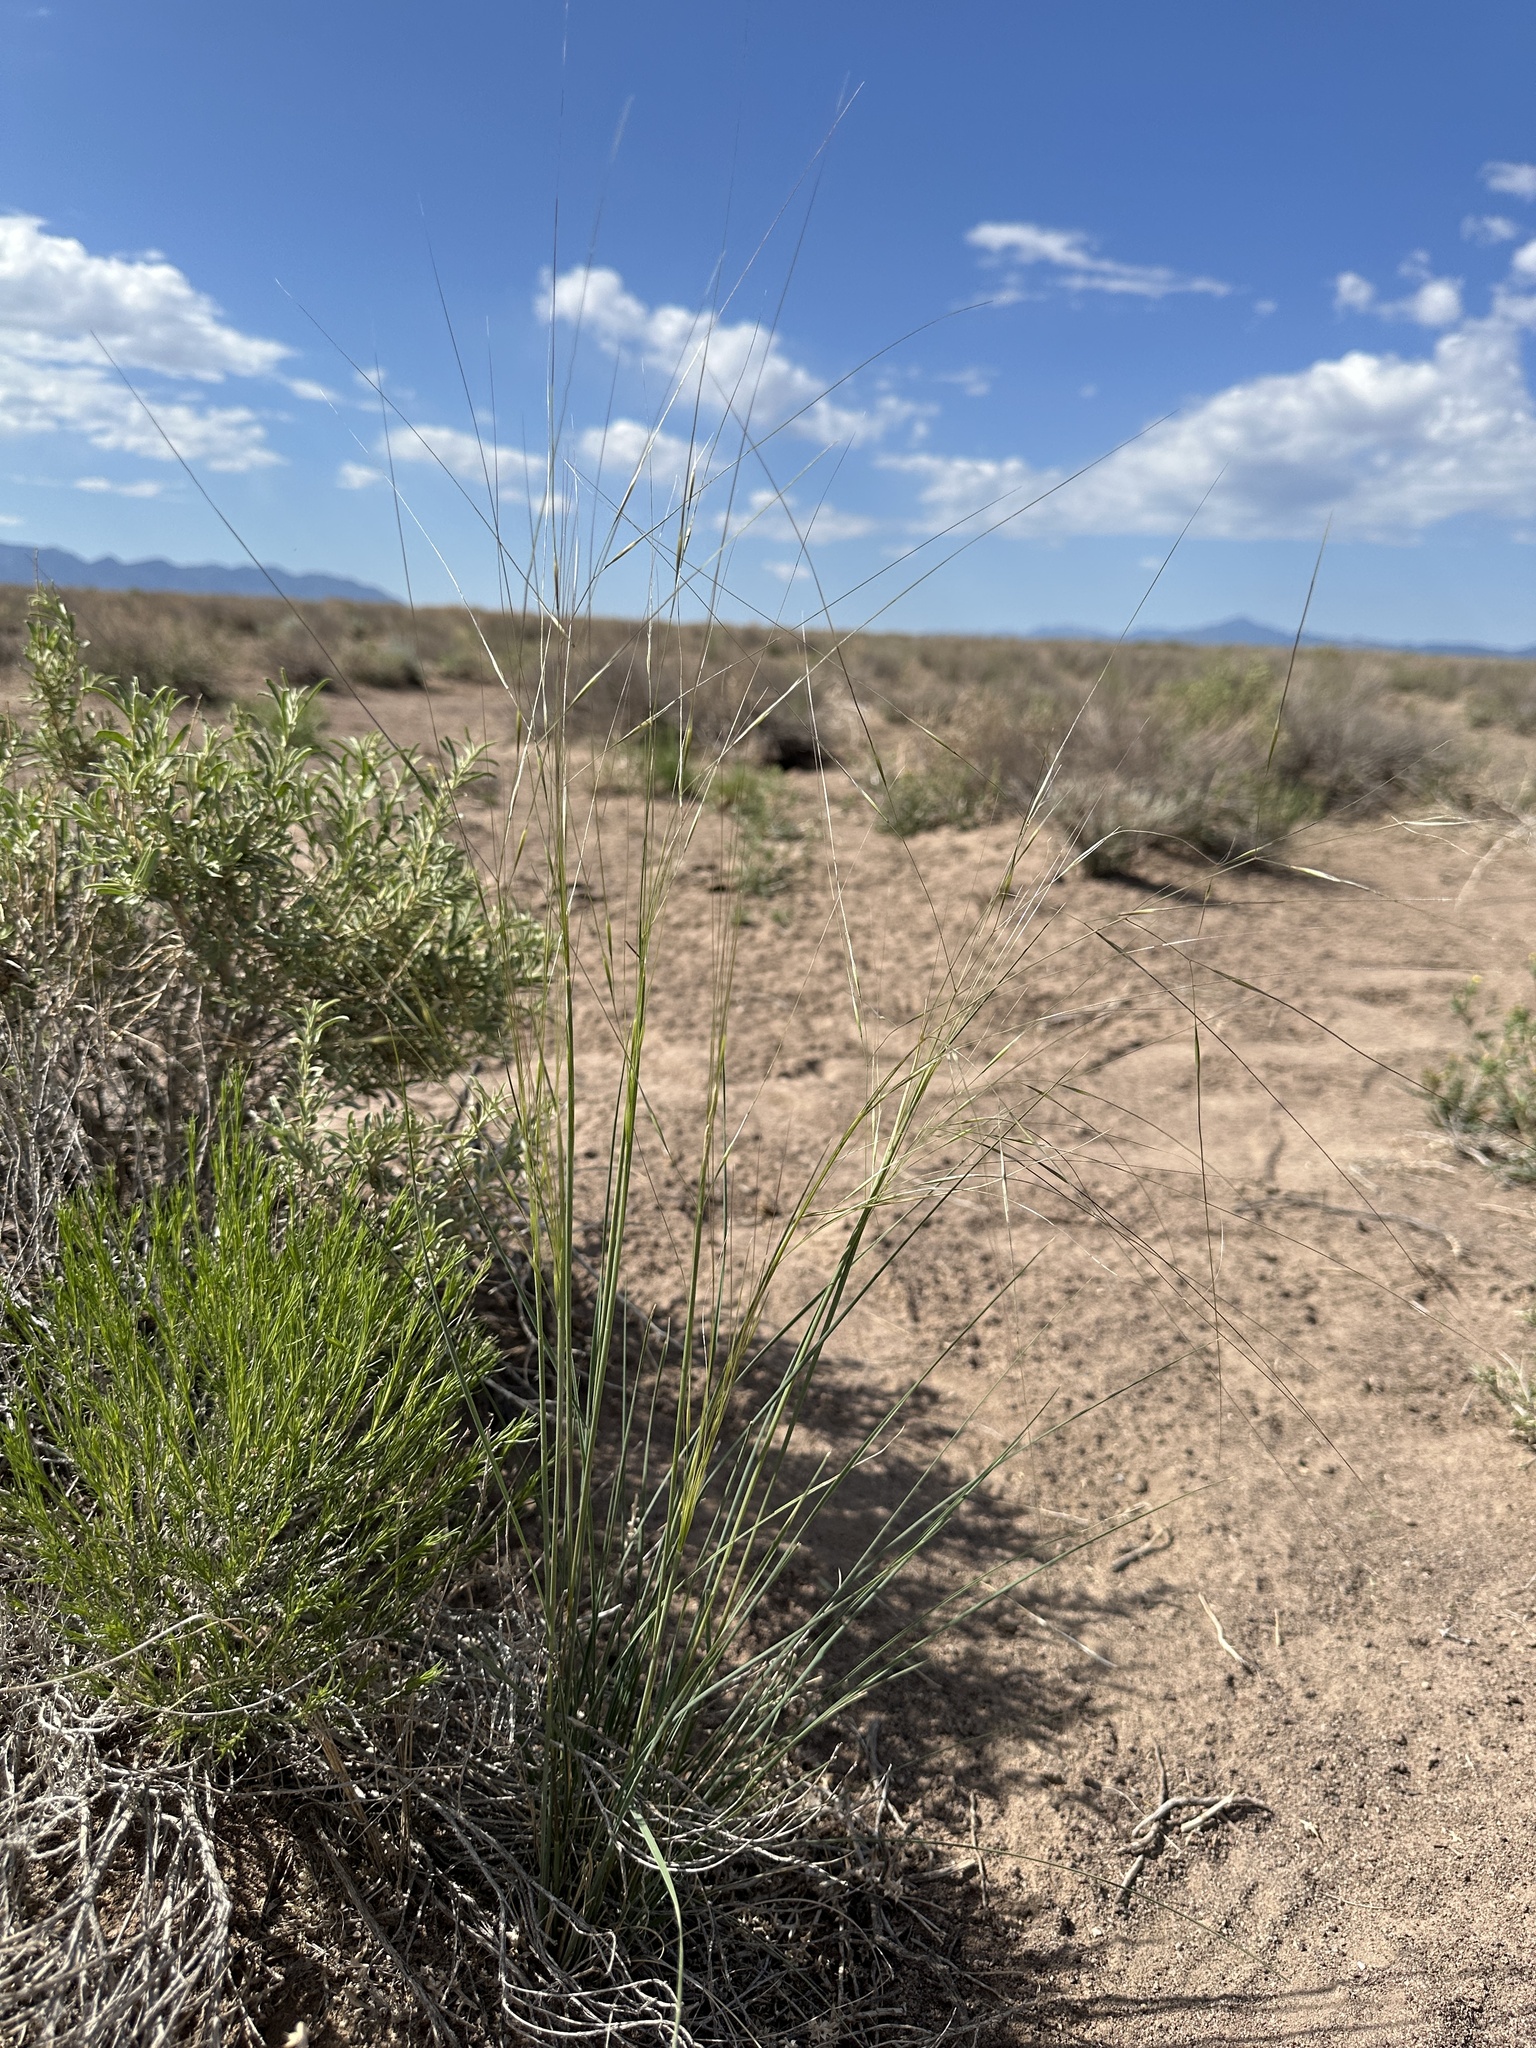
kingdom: Plantae
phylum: Tracheophyta
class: Liliopsida
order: Poales
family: Poaceae
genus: Hesperostipa
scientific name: Hesperostipa comata
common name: Needle-and-thread grass
